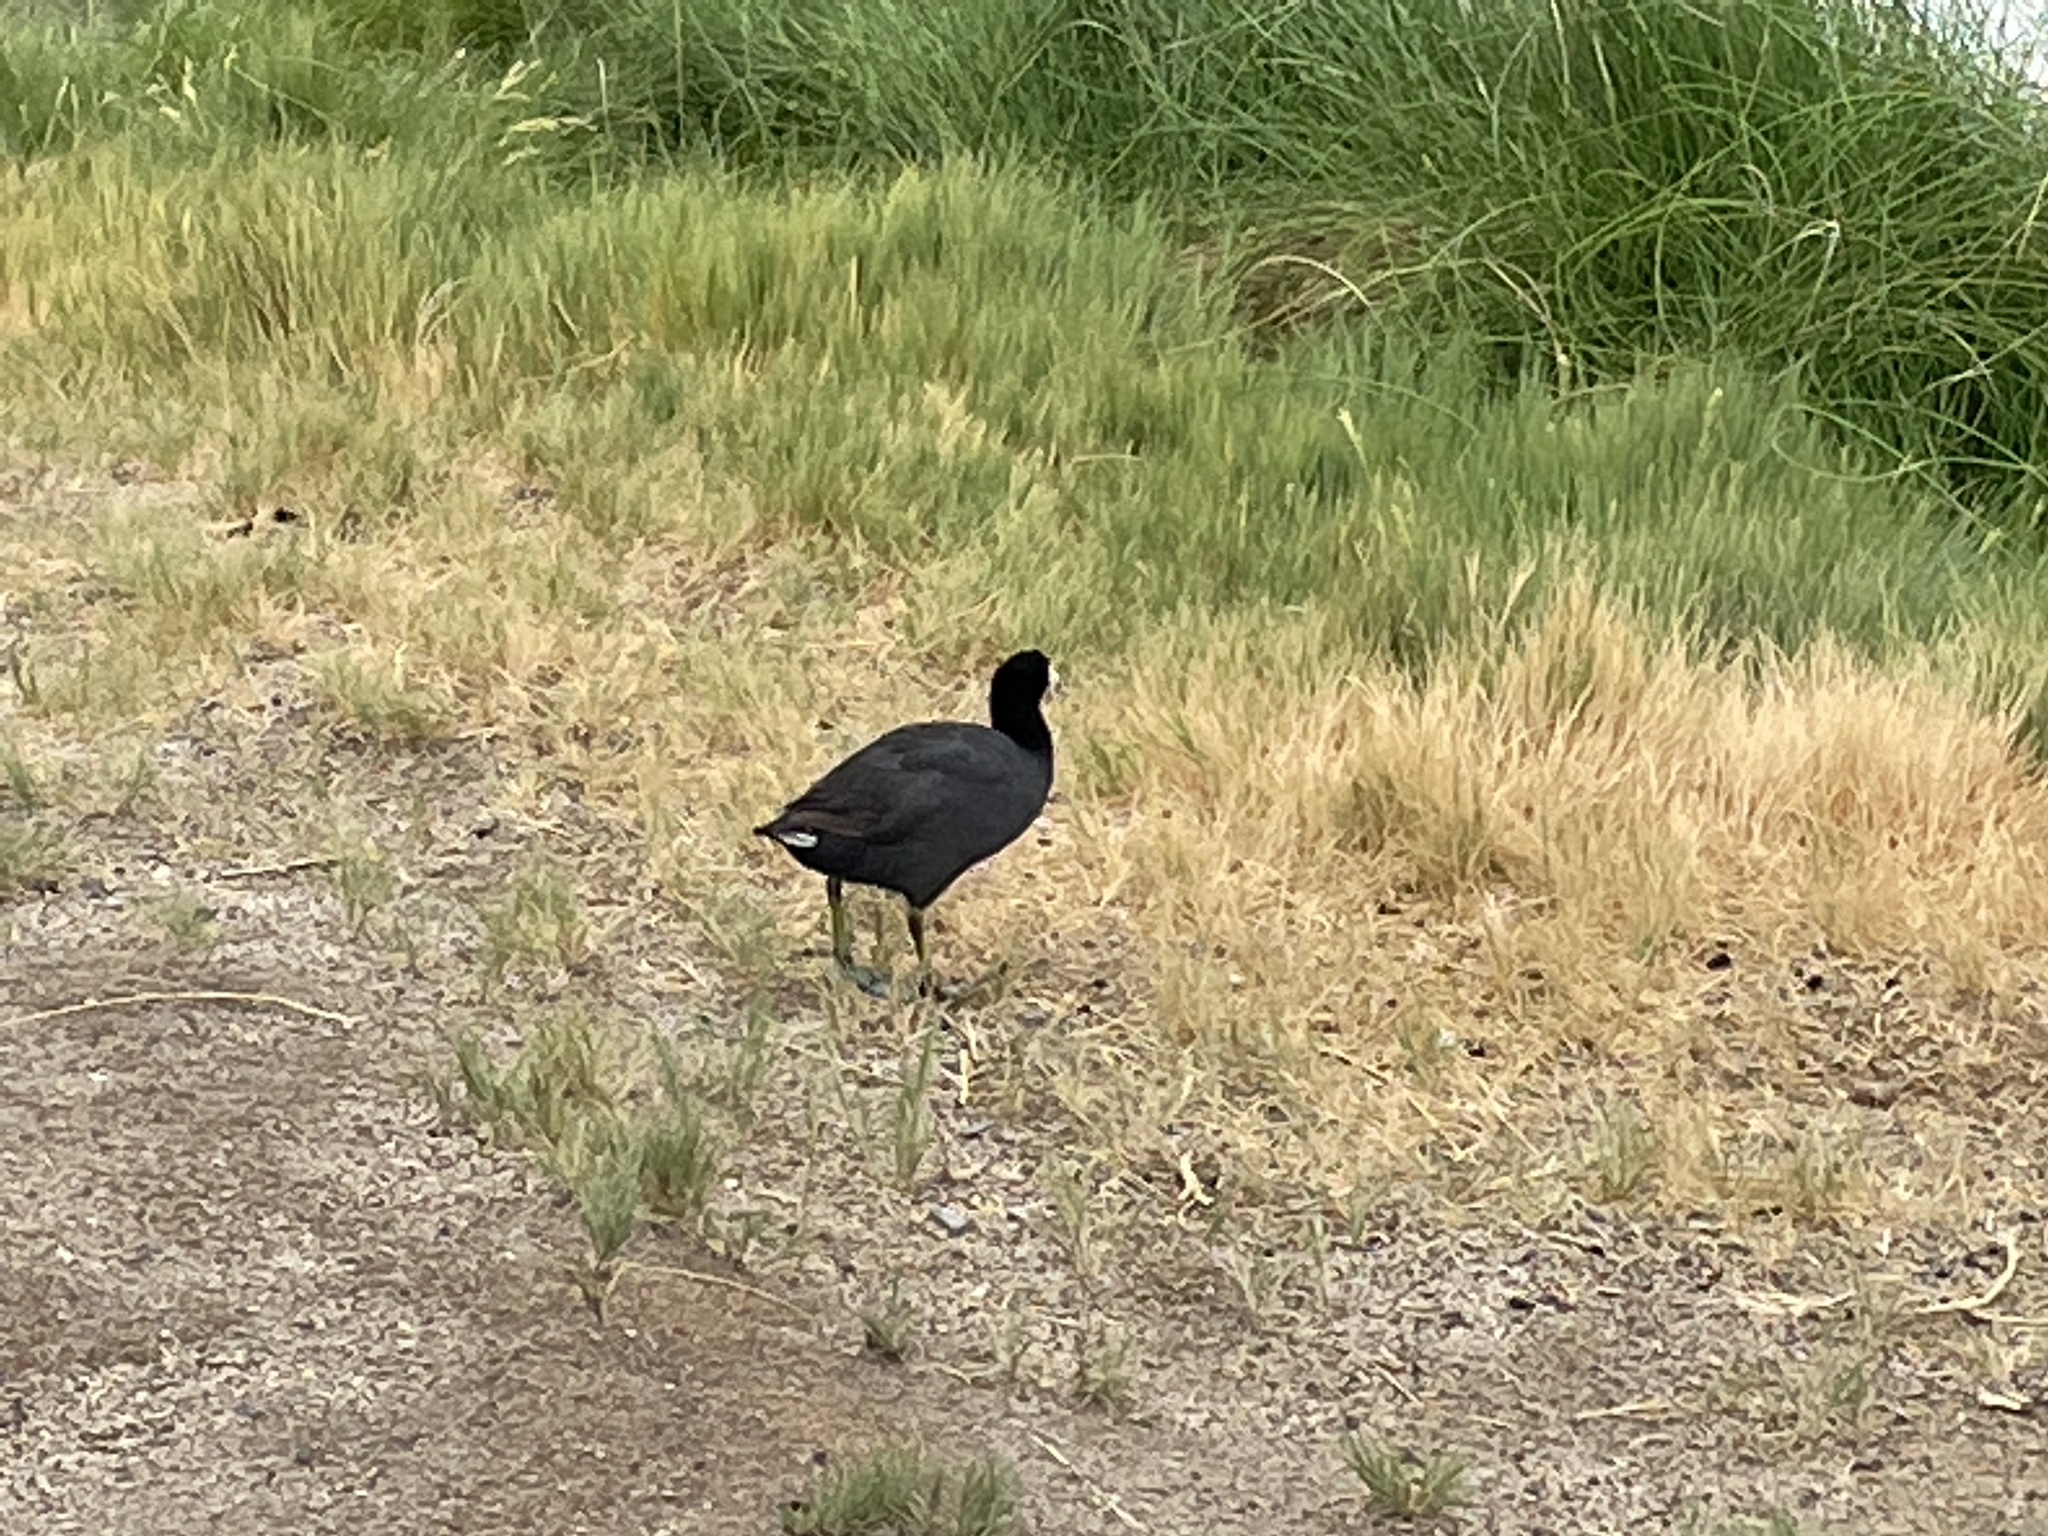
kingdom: Animalia
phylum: Chordata
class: Aves
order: Gruiformes
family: Rallidae
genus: Fulica
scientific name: Fulica americana
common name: American coot
